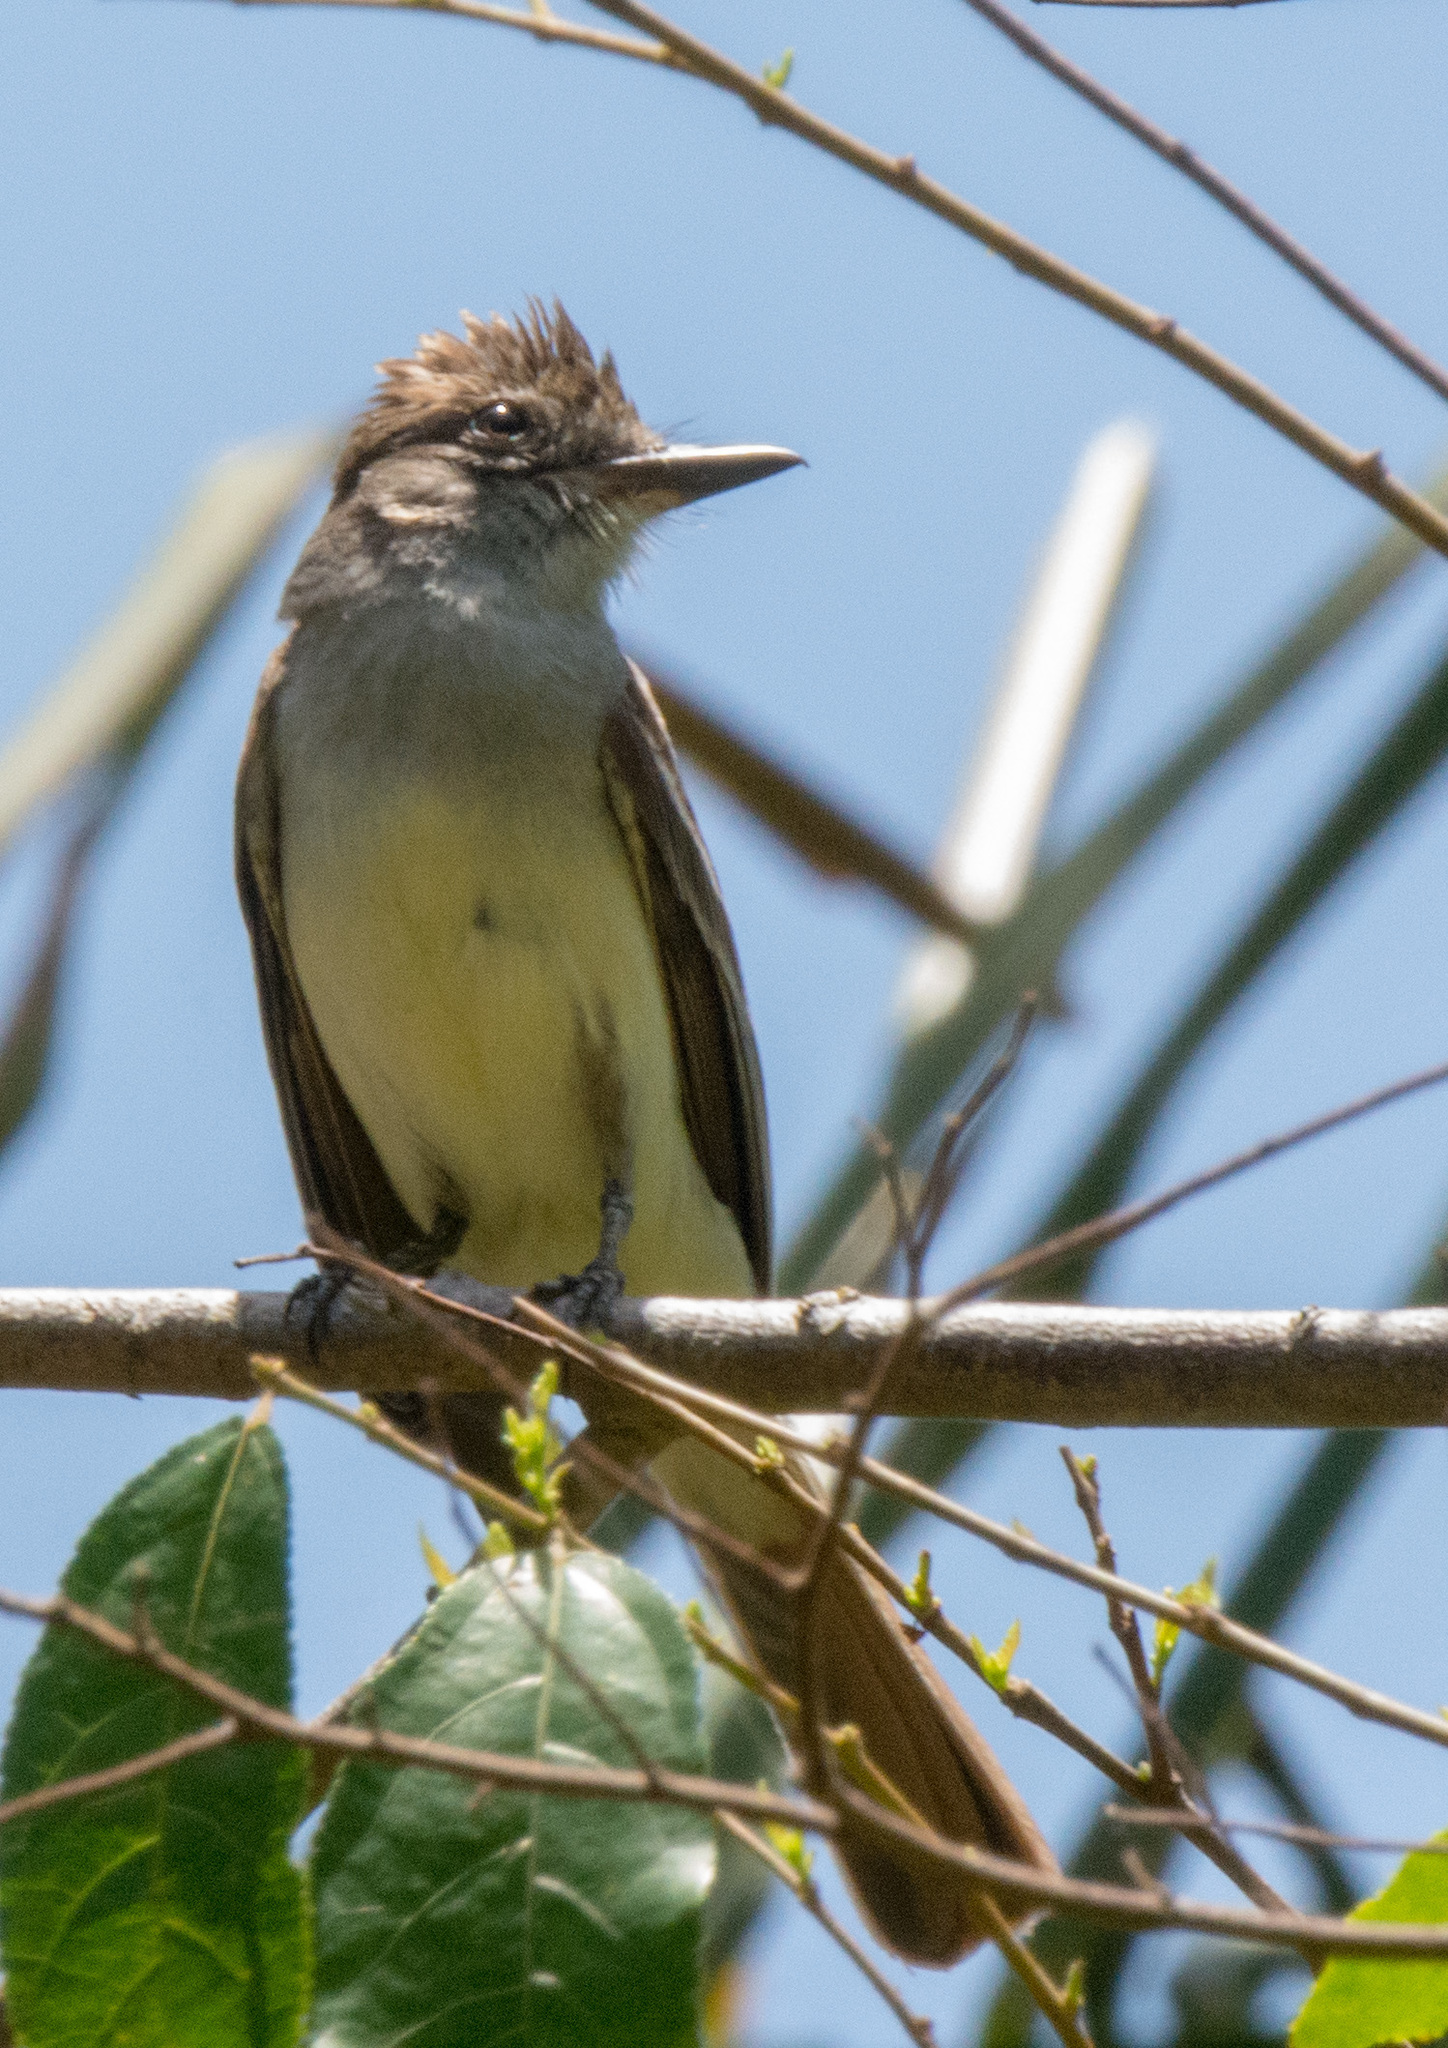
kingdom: Animalia
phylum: Chordata
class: Aves
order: Passeriformes
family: Tyrannidae
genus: Myiarchus
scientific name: Myiarchus tyrannulus
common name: Brown-crested flycatcher
